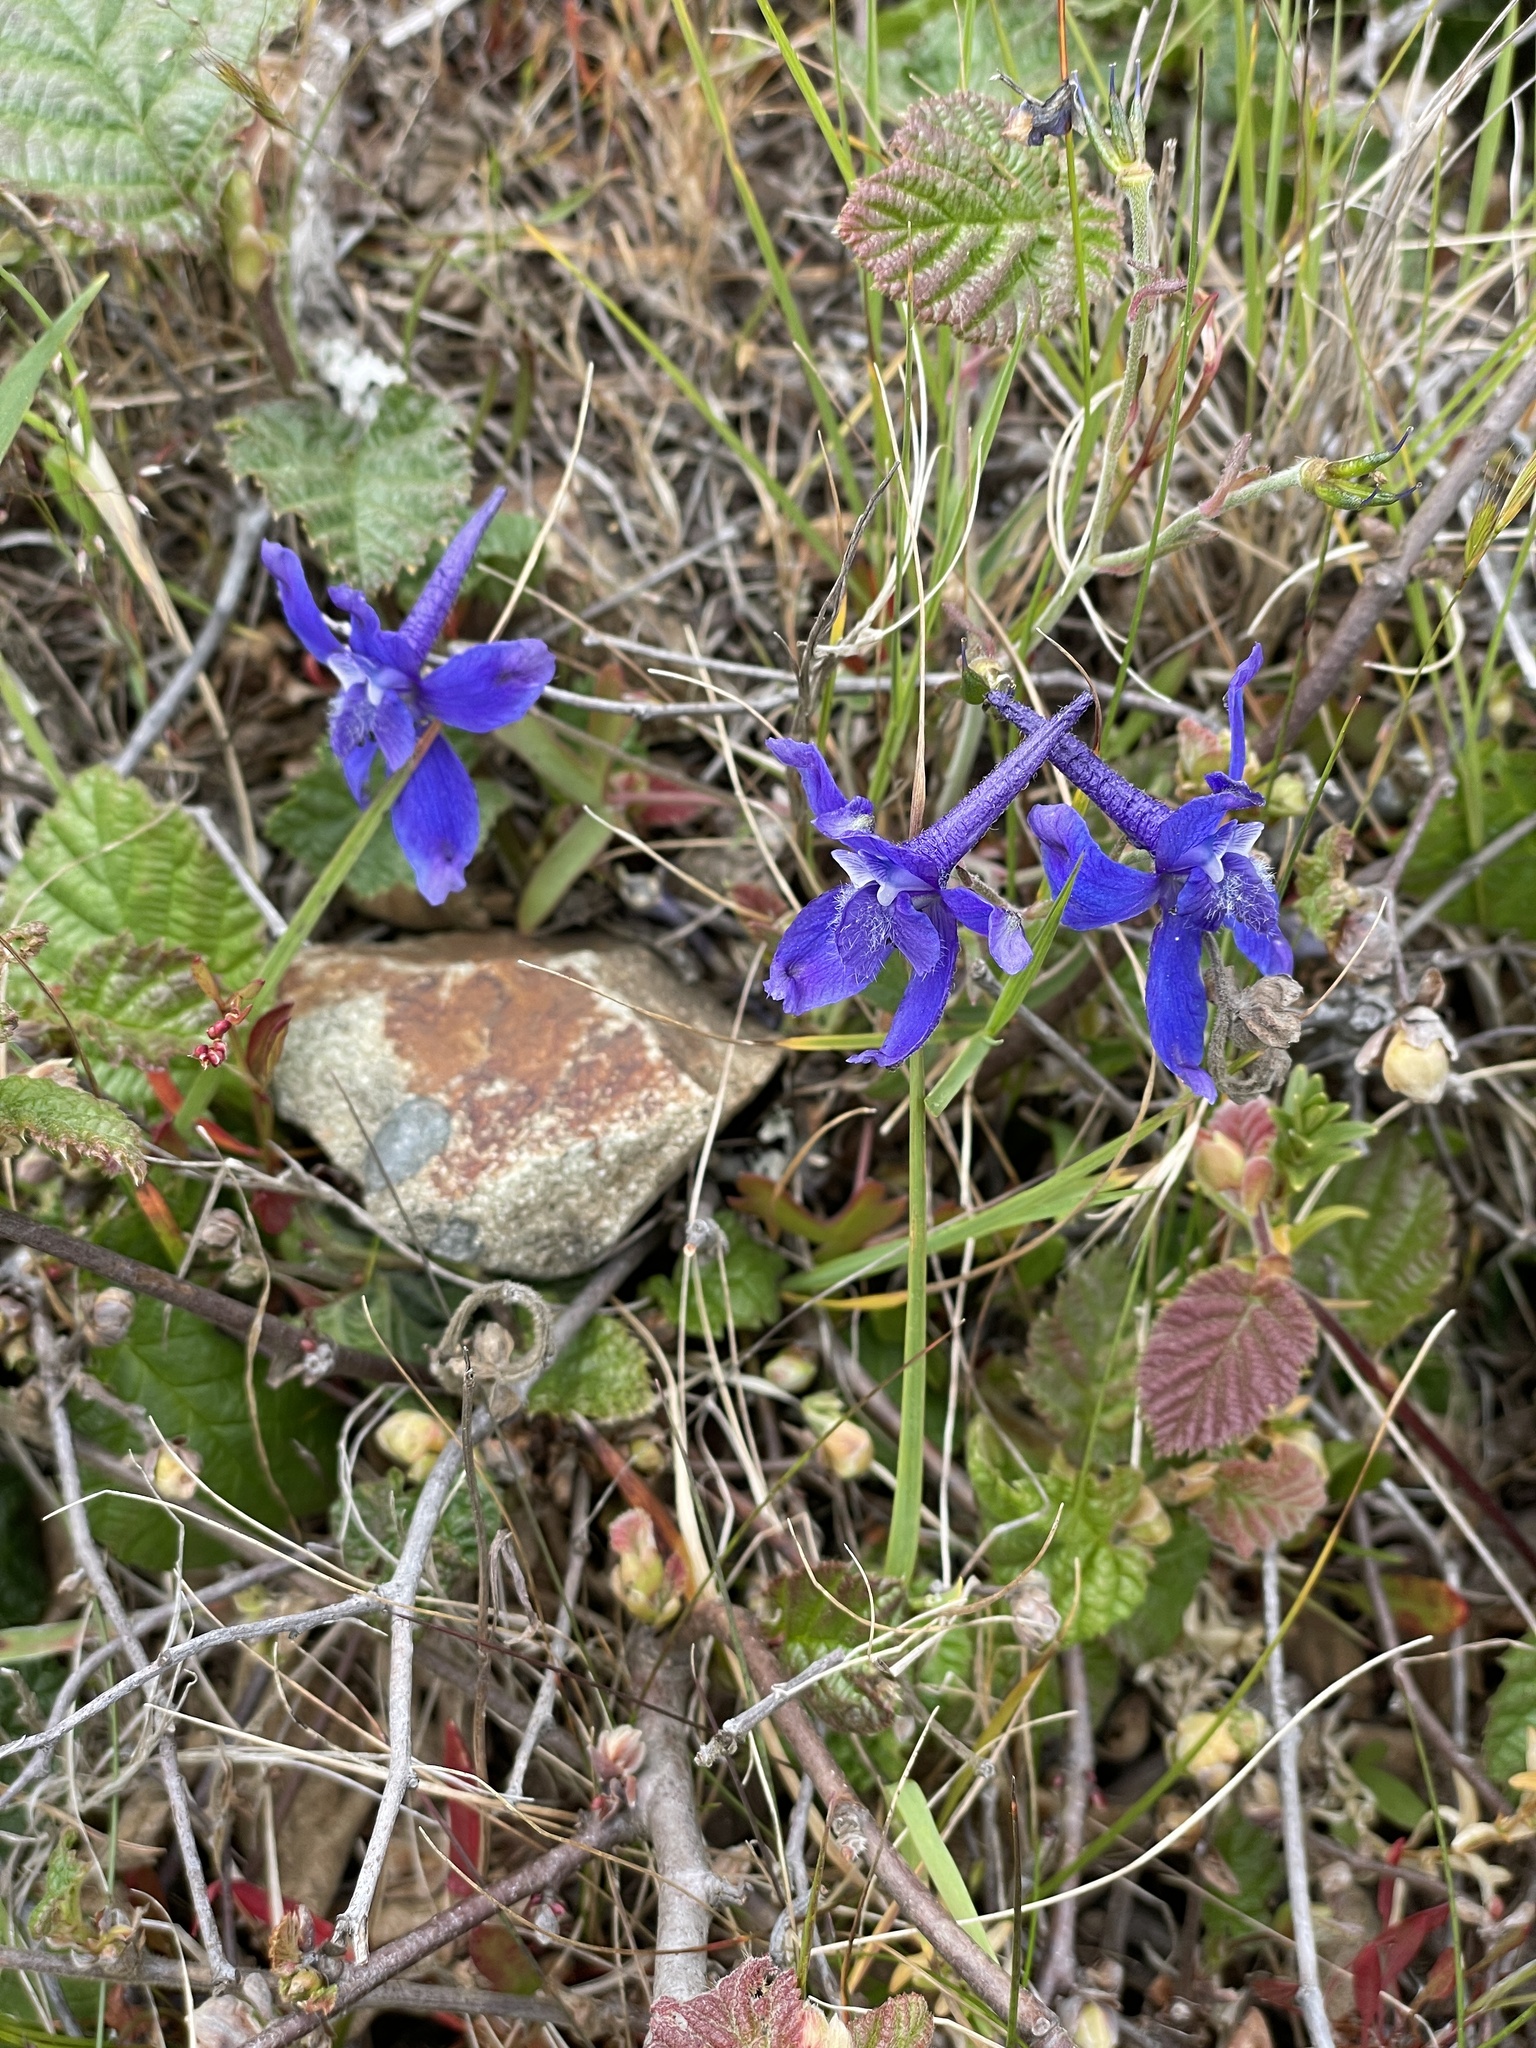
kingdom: Plantae
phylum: Tracheophyta
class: Magnoliopsida
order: Ranunculales
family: Ranunculaceae
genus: Delphinium
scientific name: Delphinium decorum
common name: Coast larkspur
